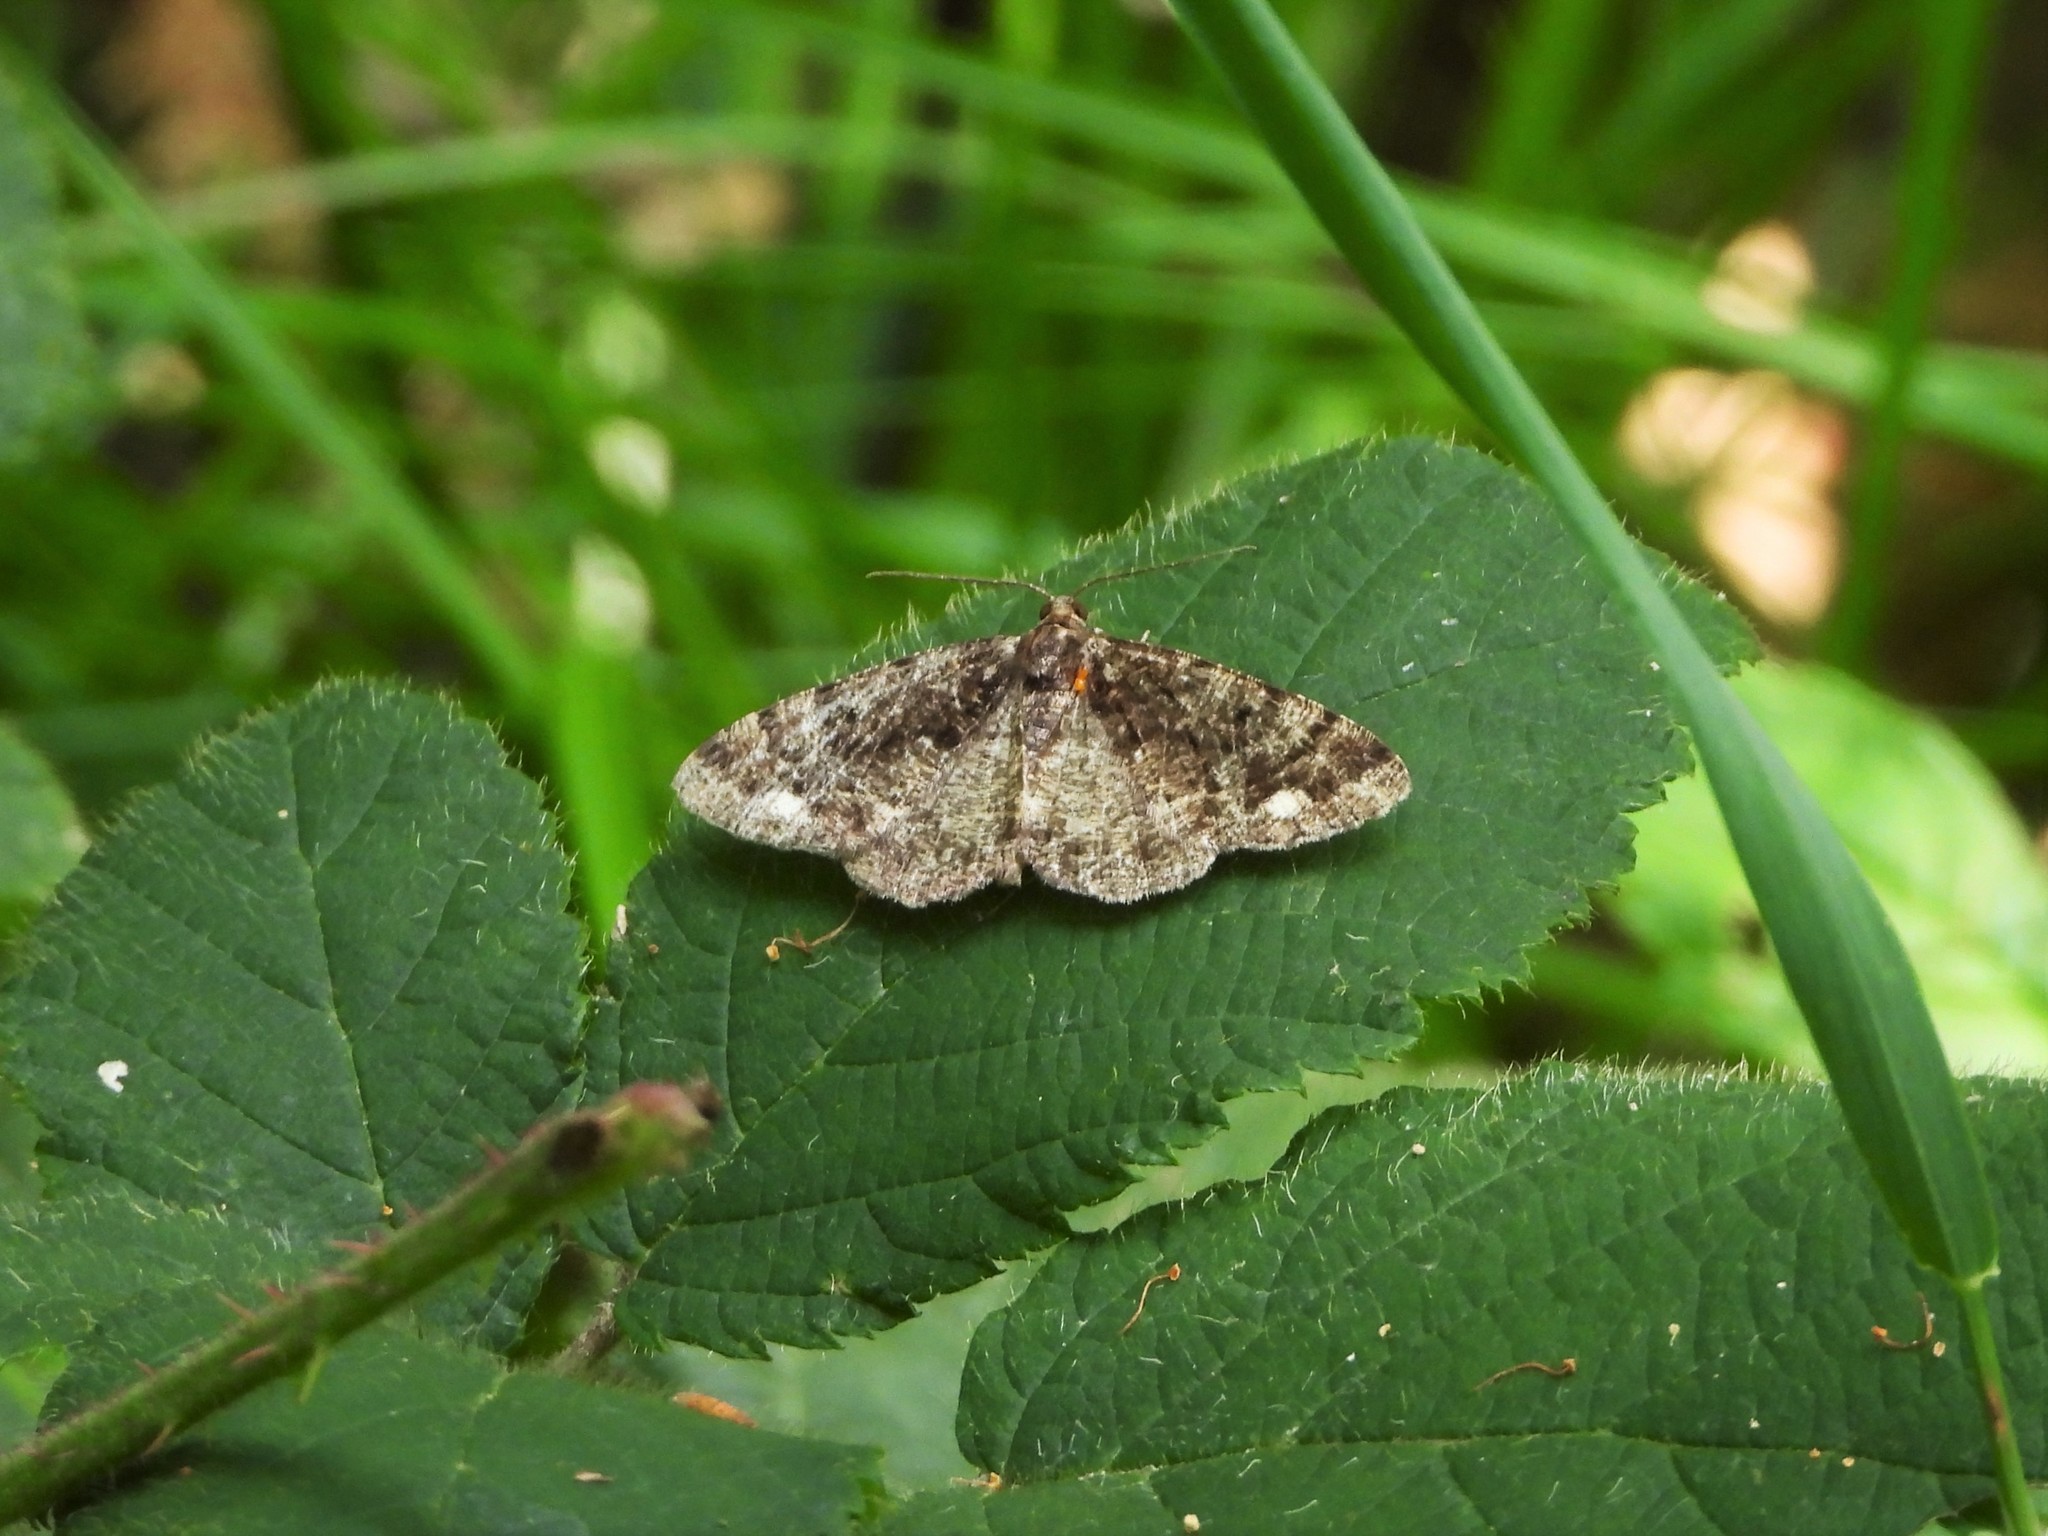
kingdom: Animalia
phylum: Arthropoda
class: Insecta
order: Lepidoptera
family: Geometridae
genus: Parectropis
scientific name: Parectropis similaria
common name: Brindled white-spot
